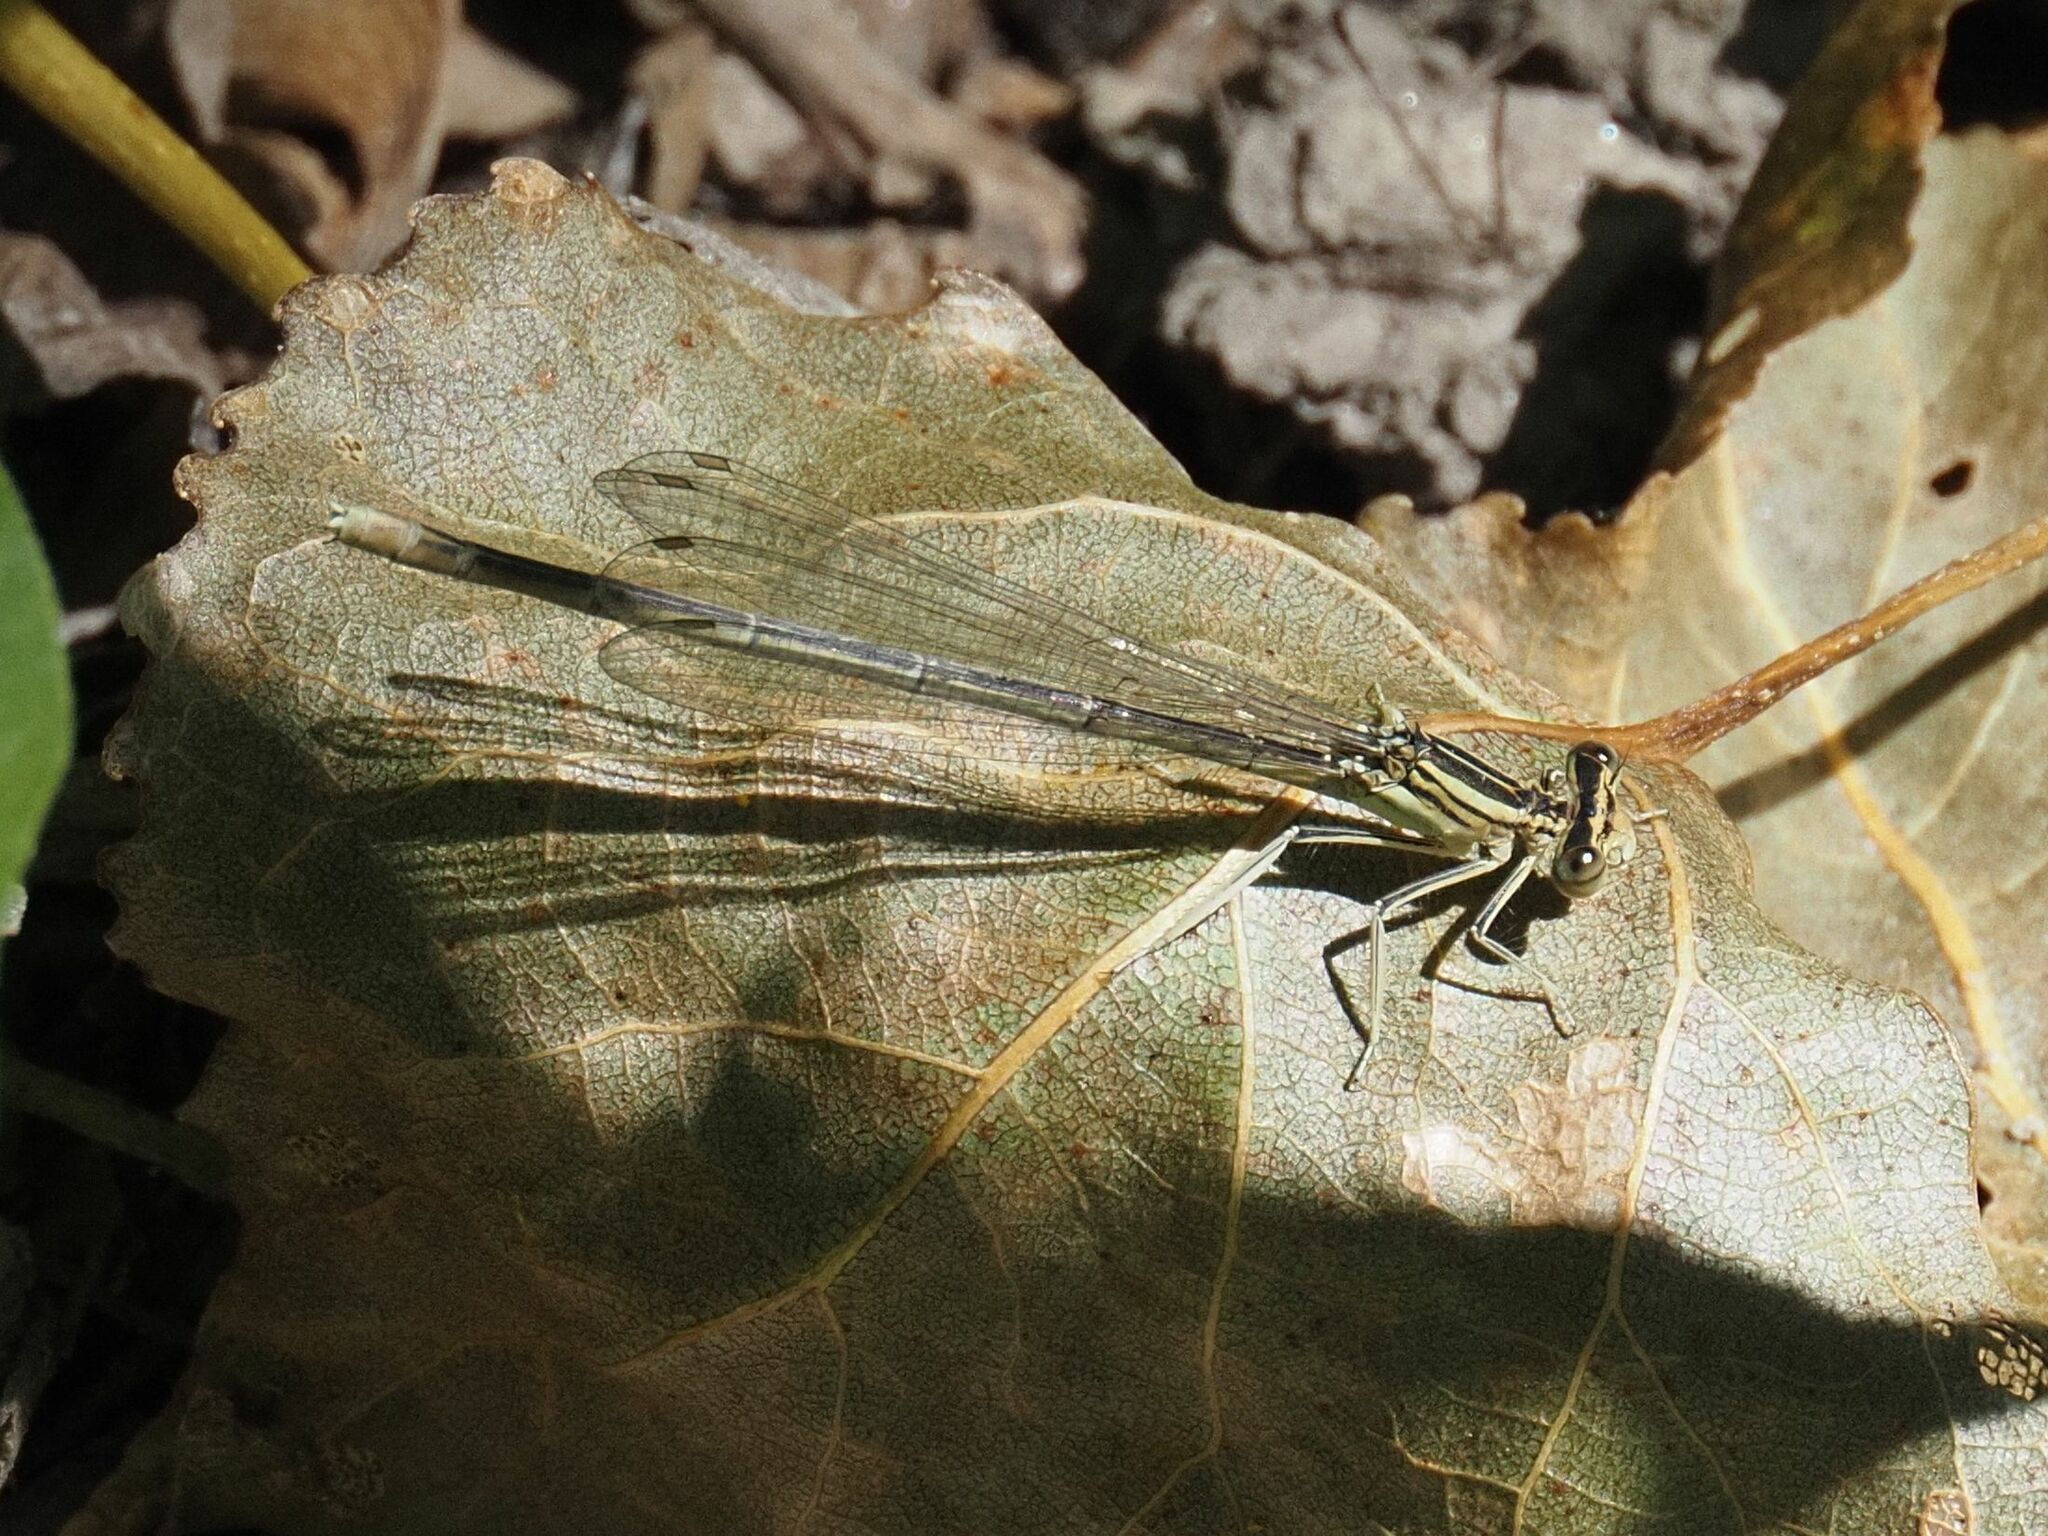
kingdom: Animalia
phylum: Arthropoda
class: Insecta
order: Odonata
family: Platycnemididae
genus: Platycnemis
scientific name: Platycnemis pennipes
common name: White-legged damselfly
